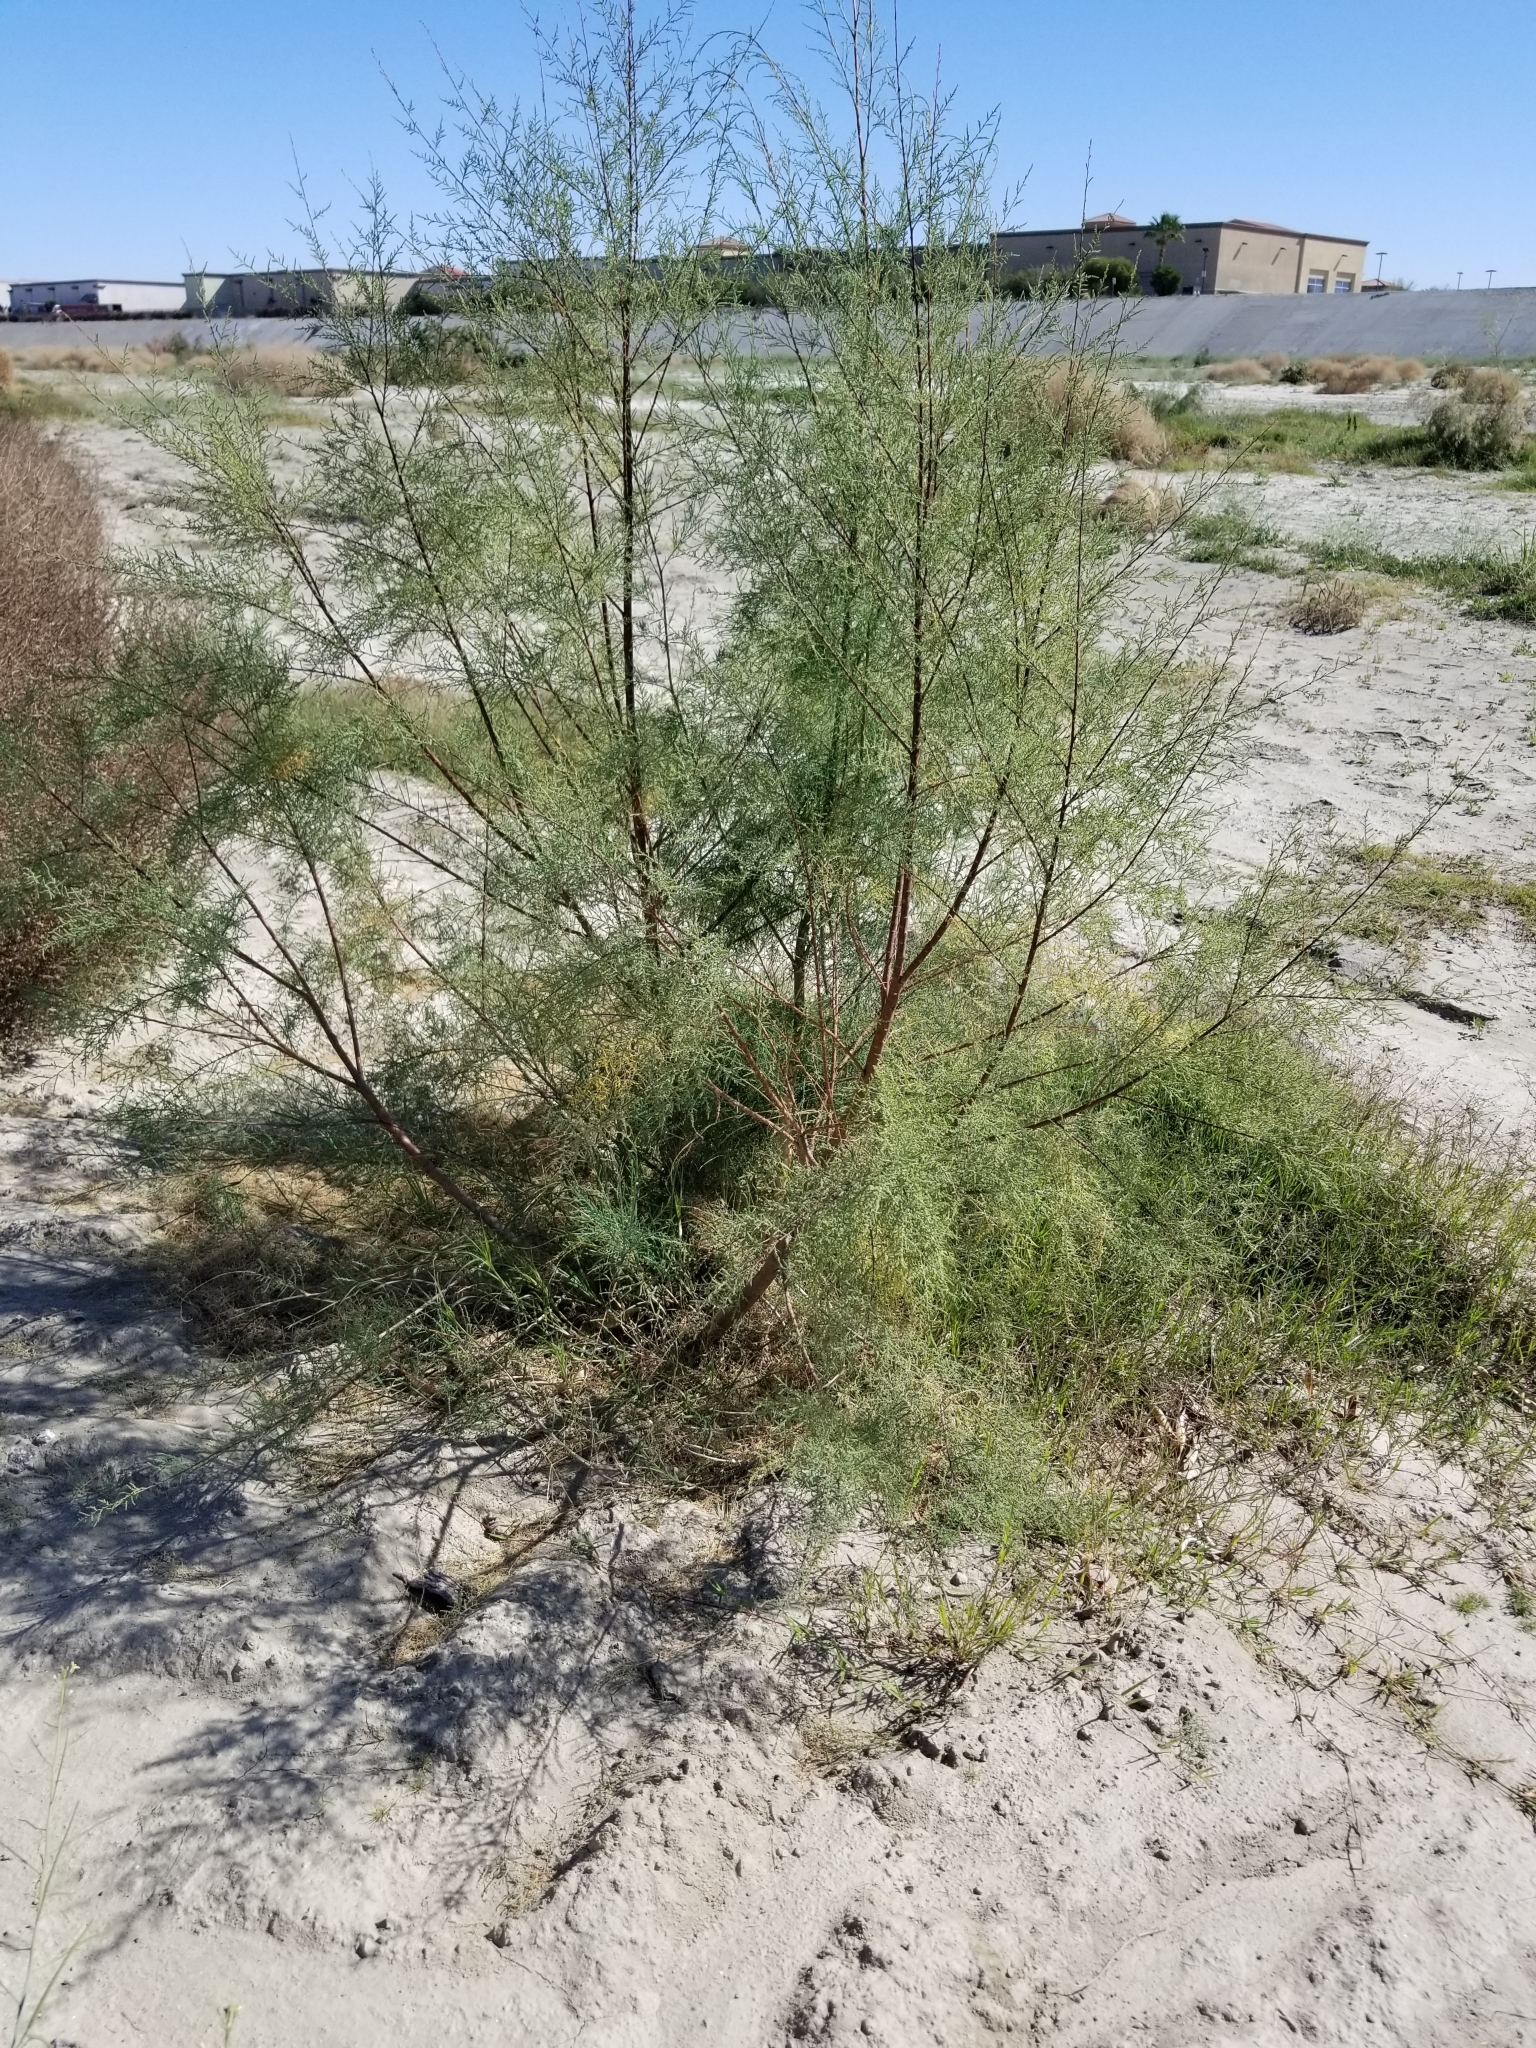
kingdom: Plantae
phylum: Tracheophyta
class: Magnoliopsida
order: Caryophyllales
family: Tamaricaceae
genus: Tamarix
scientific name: Tamarix ramosissima
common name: Pink tamarisk
